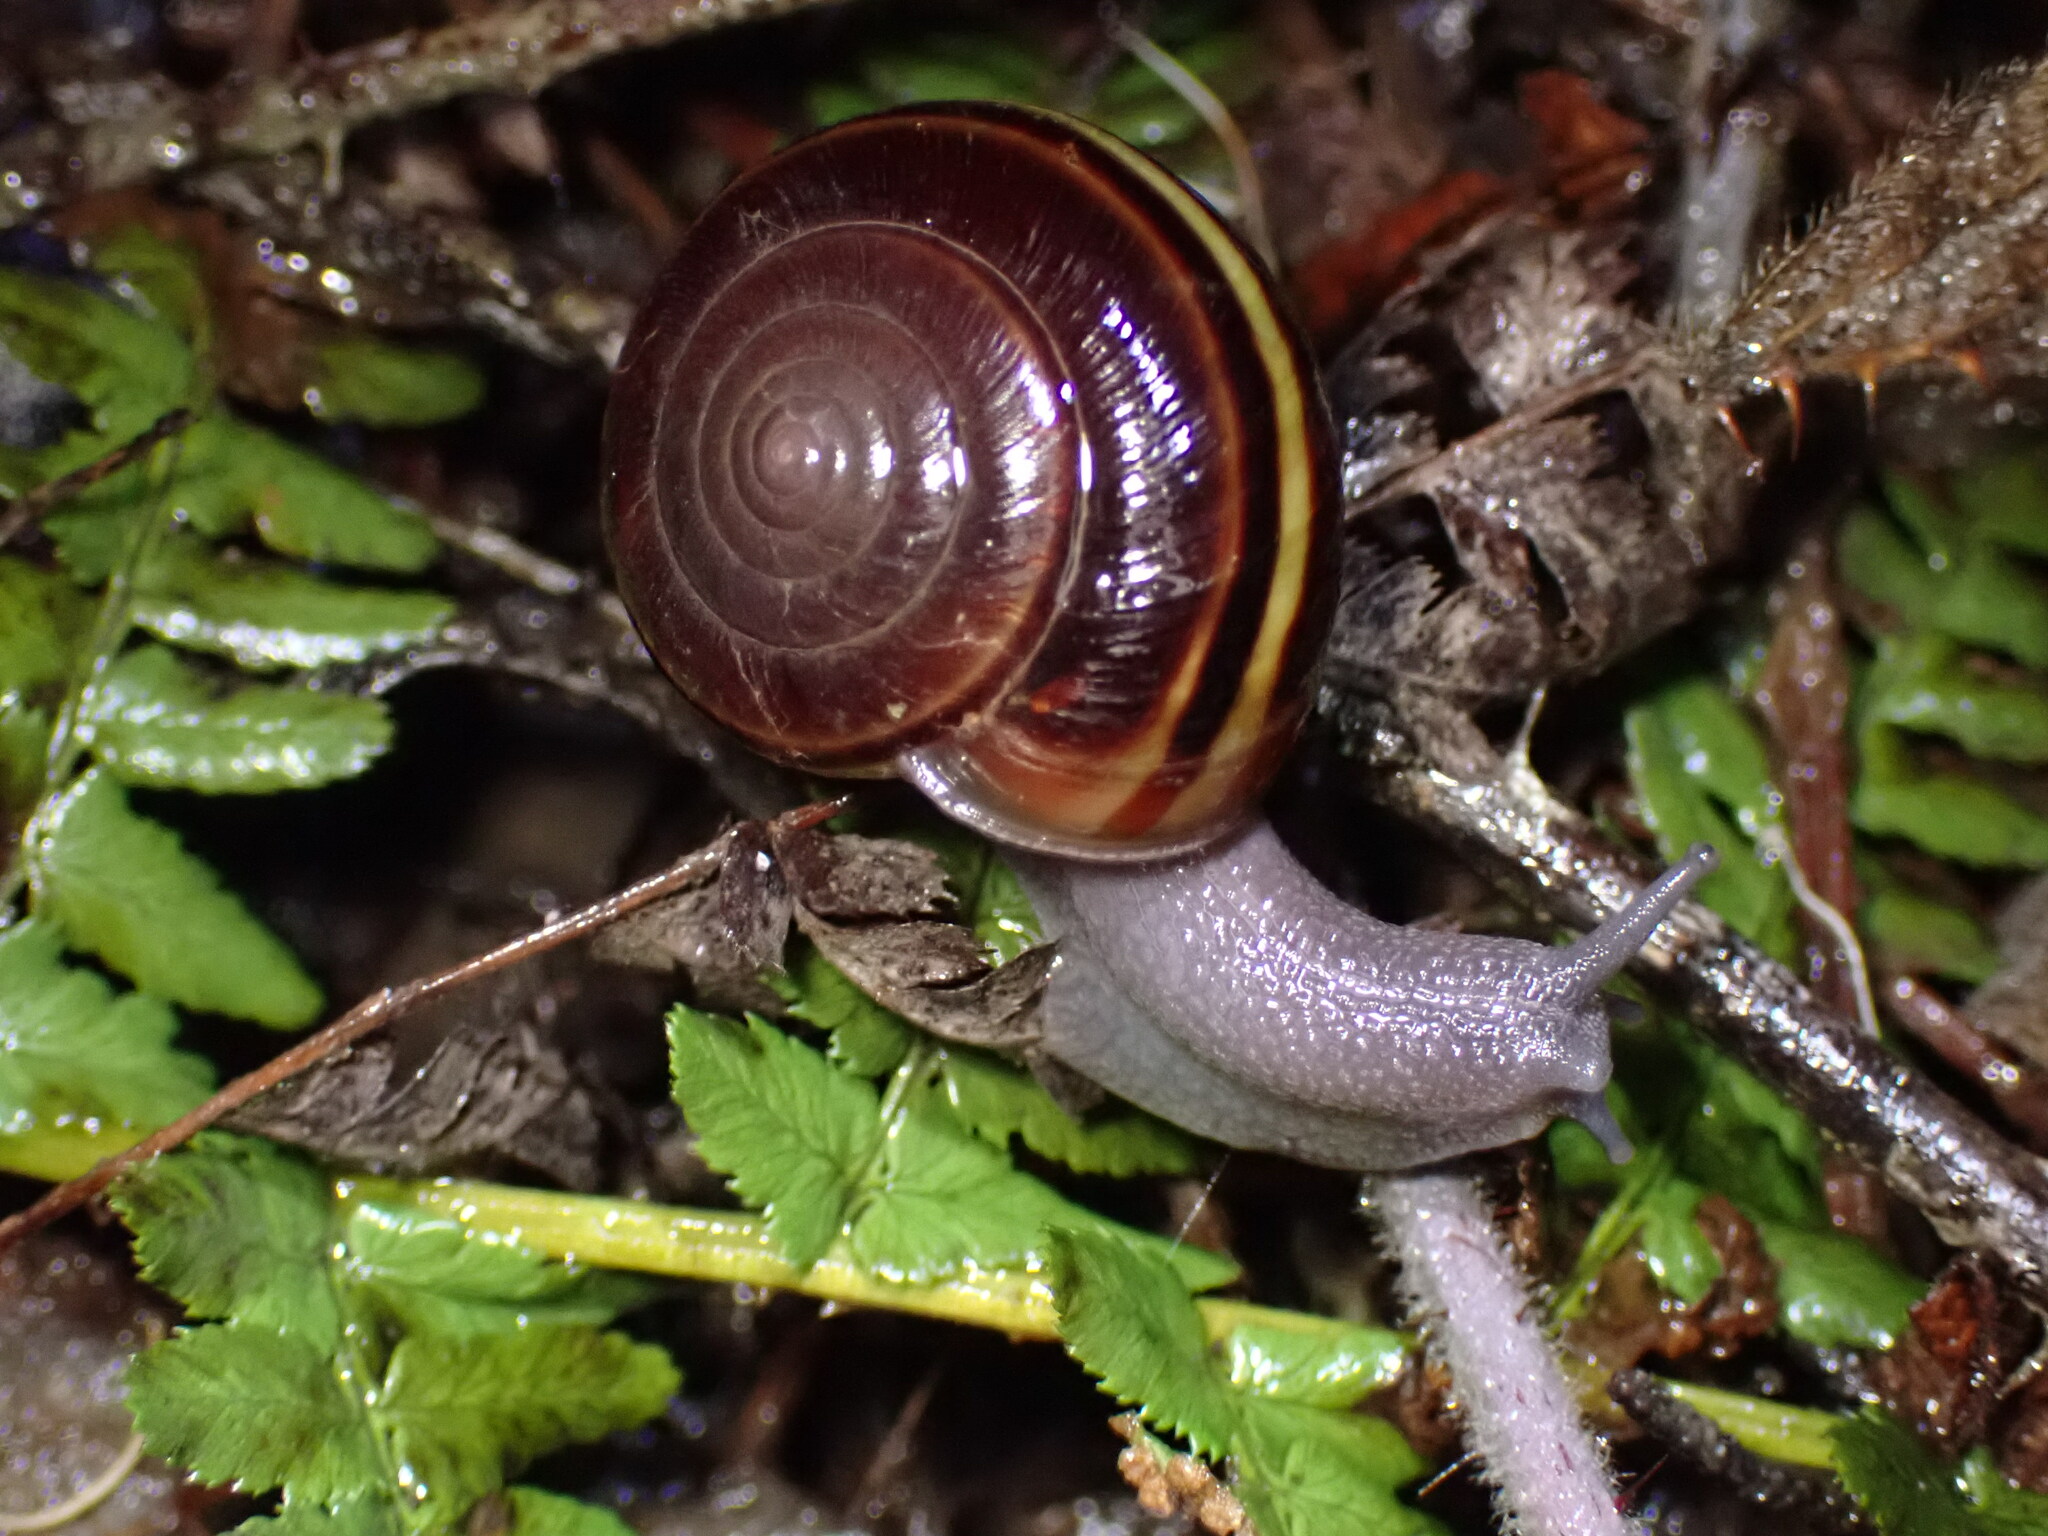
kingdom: Animalia
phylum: Mollusca
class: Gastropoda
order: Stylommatophora
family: Xanthonychidae
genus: Helminthoglypta
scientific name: Helminthoglypta sequoicola
